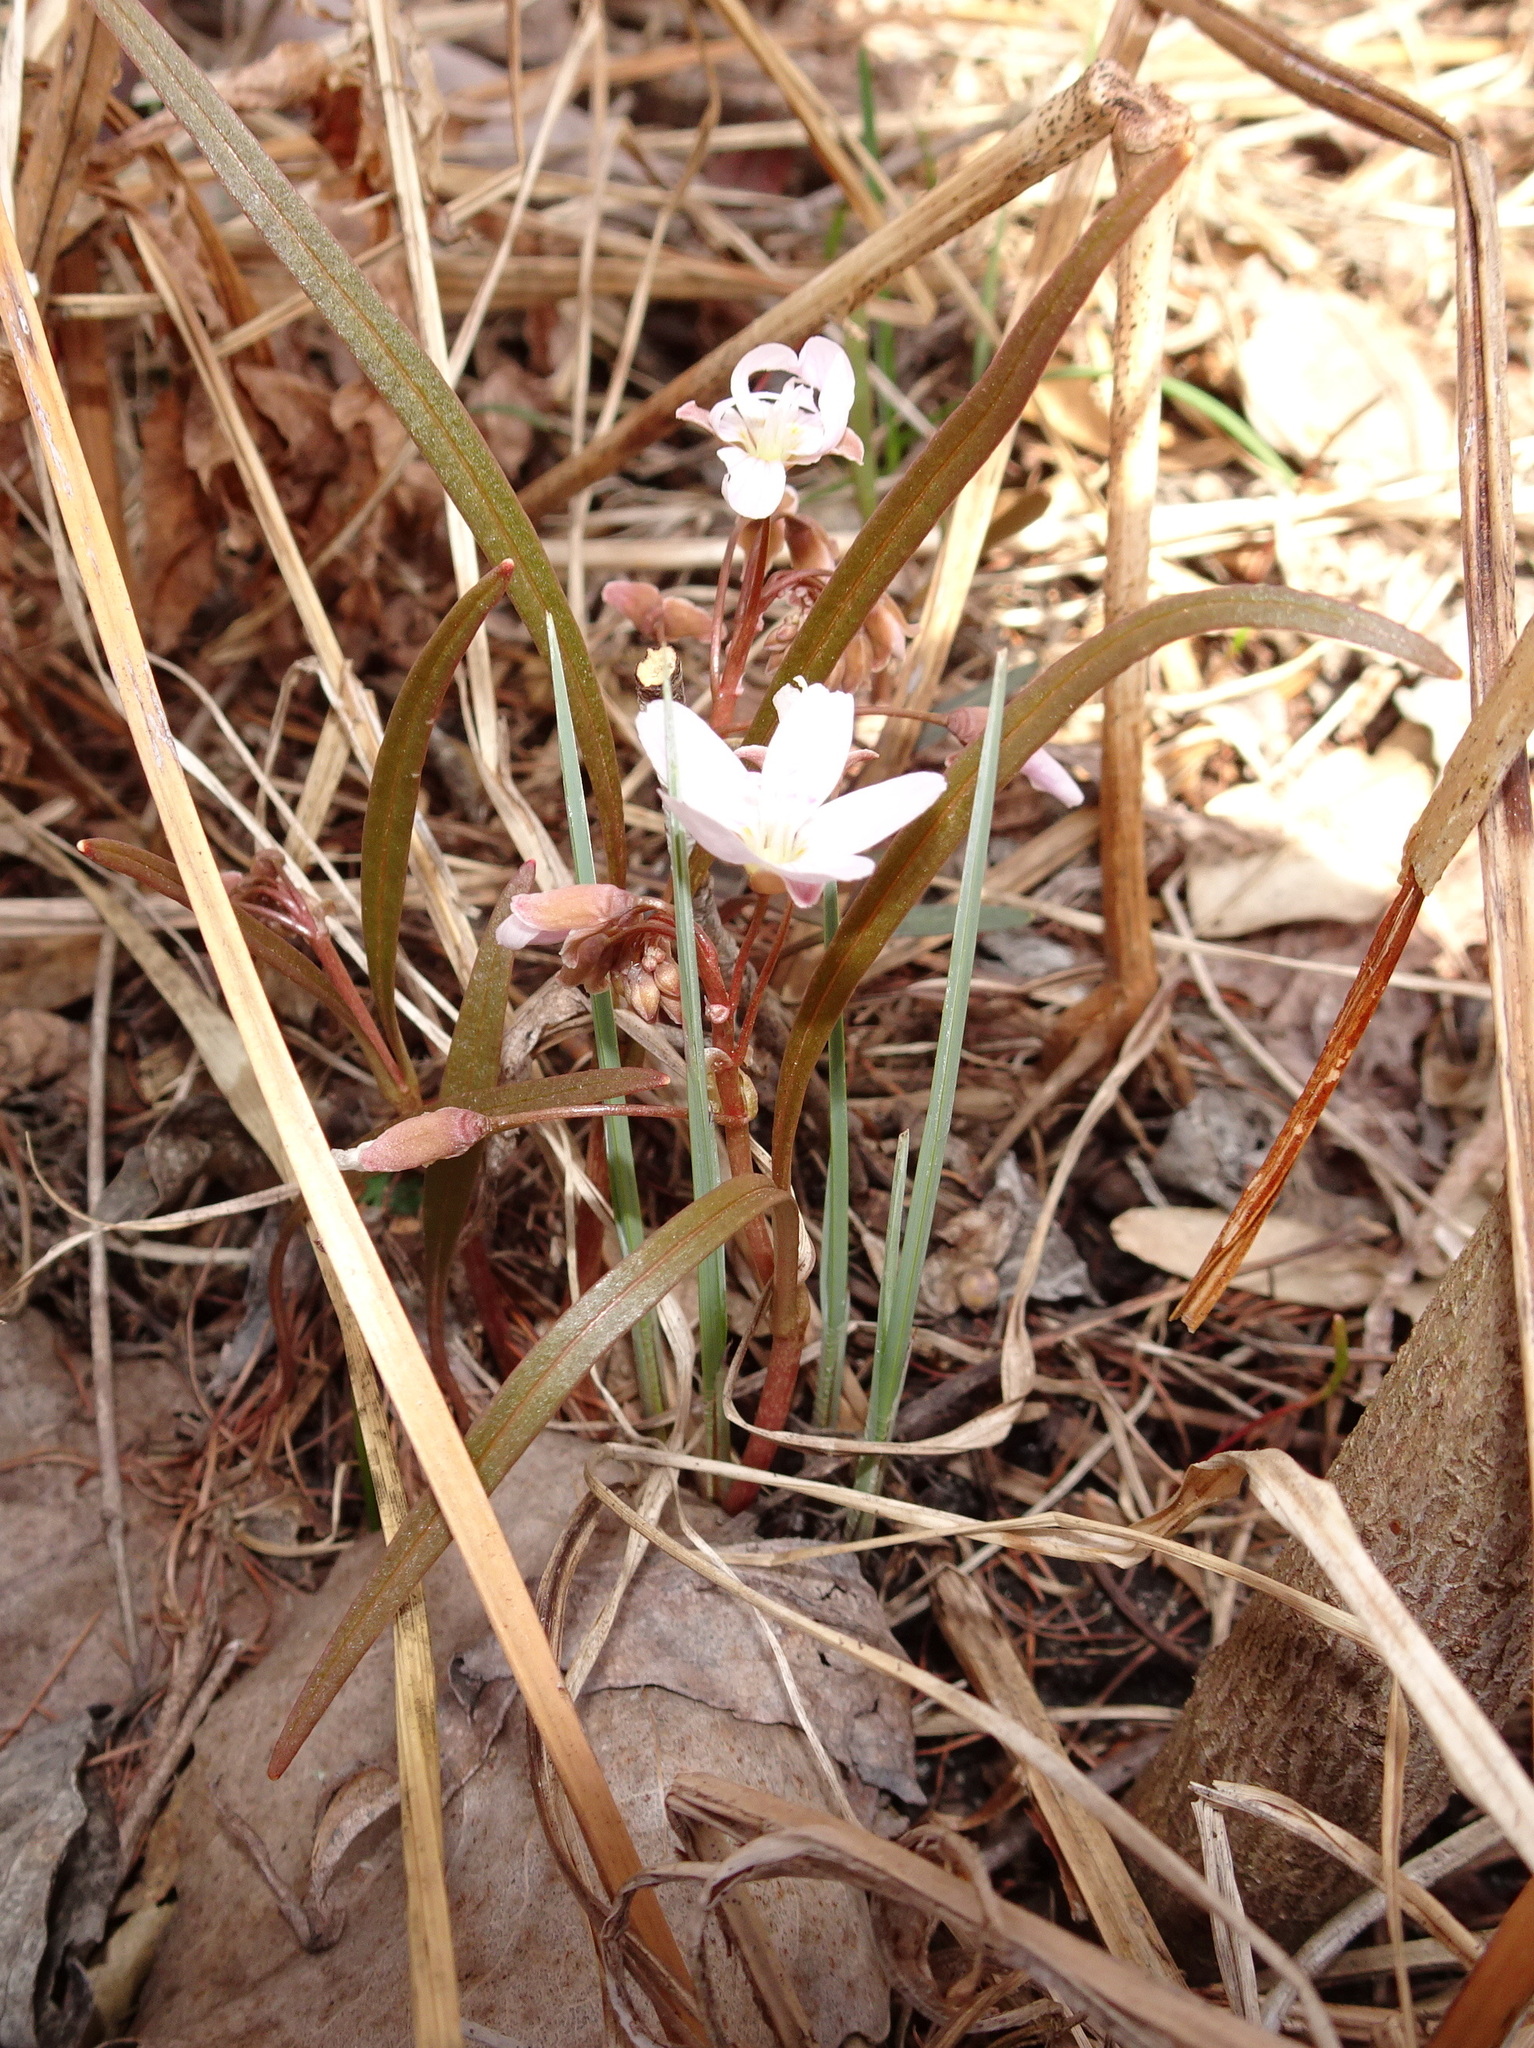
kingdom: Plantae
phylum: Tracheophyta
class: Magnoliopsida
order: Caryophyllales
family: Montiaceae
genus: Claytonia
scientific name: Claytonia virginica
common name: Virginia springbeauty
